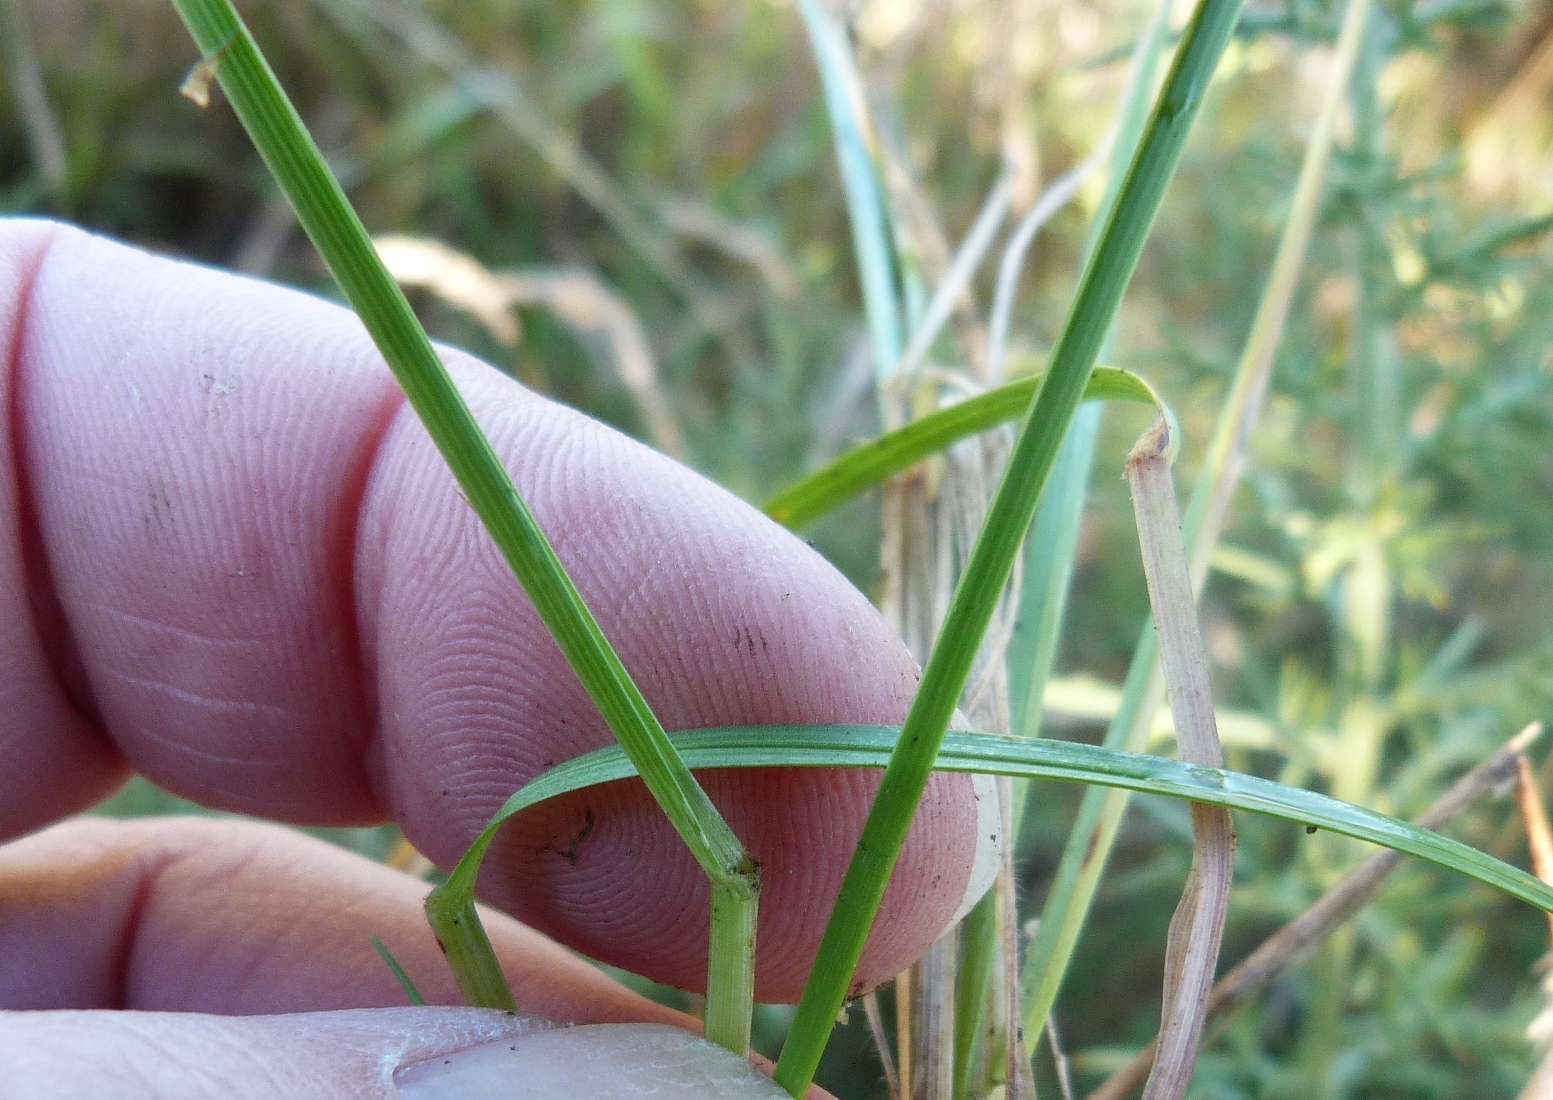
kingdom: Plantae
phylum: Tracheophyta
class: Liliopsida
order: Poales
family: Poaceae
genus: Poa
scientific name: Poa pratensis
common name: Kentucky bluegrass
